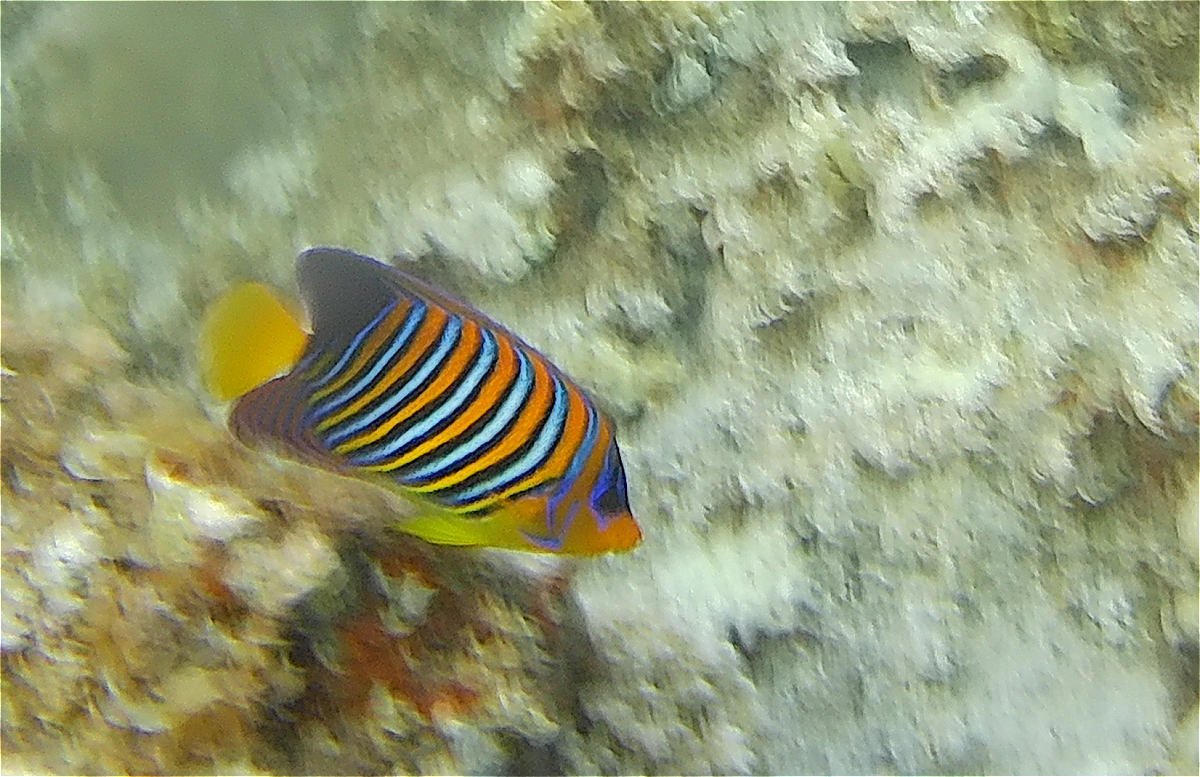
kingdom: Animalia
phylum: Chordata
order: Perciformes
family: Pomacanthidae
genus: Pygoplites
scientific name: Pygoplites diacanthus
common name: Regal angelfish
